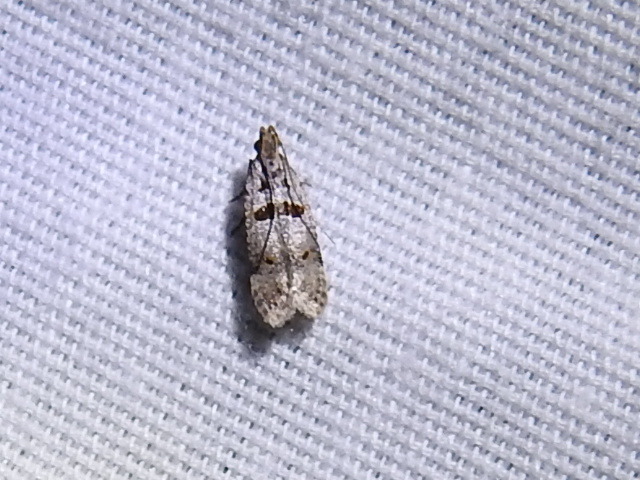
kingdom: Animalia
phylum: Arthropoda
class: Insecta
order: Lepidoptera
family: Gelechiidae
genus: Deltophora
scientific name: Deltophora glandiferella
